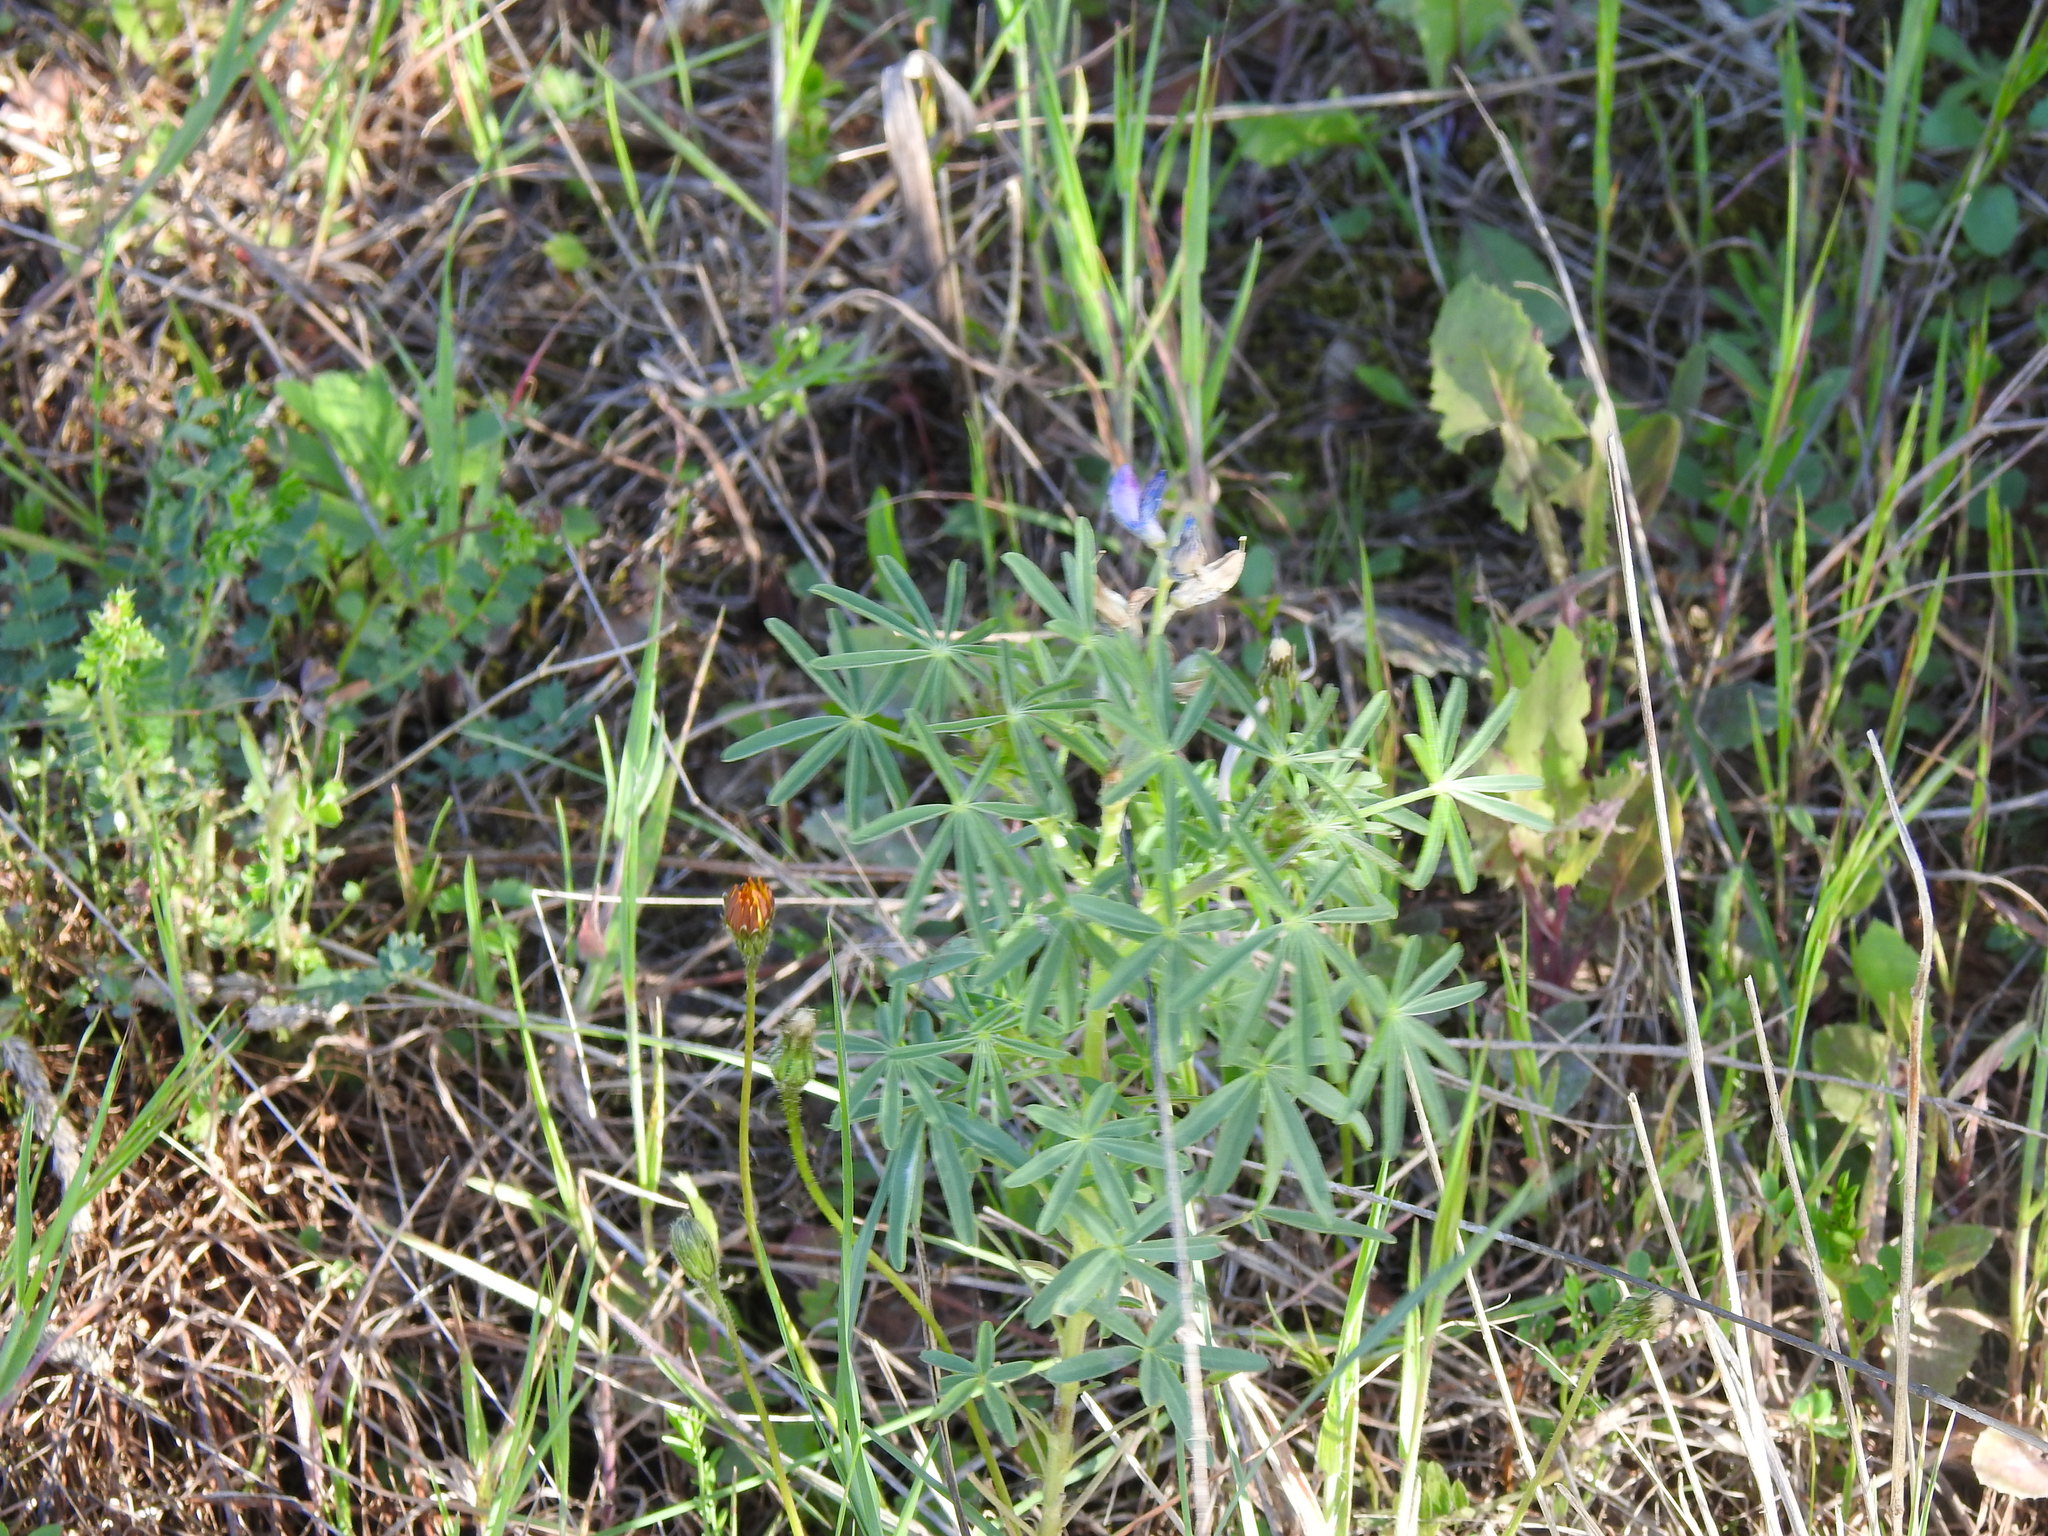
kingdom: Plantae
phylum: Tracheophyta
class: Magnoliopsida
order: Fabales
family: Fabaceae
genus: Lupinus
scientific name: Lupinus angustifolius
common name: Narrow-leaved lupin
